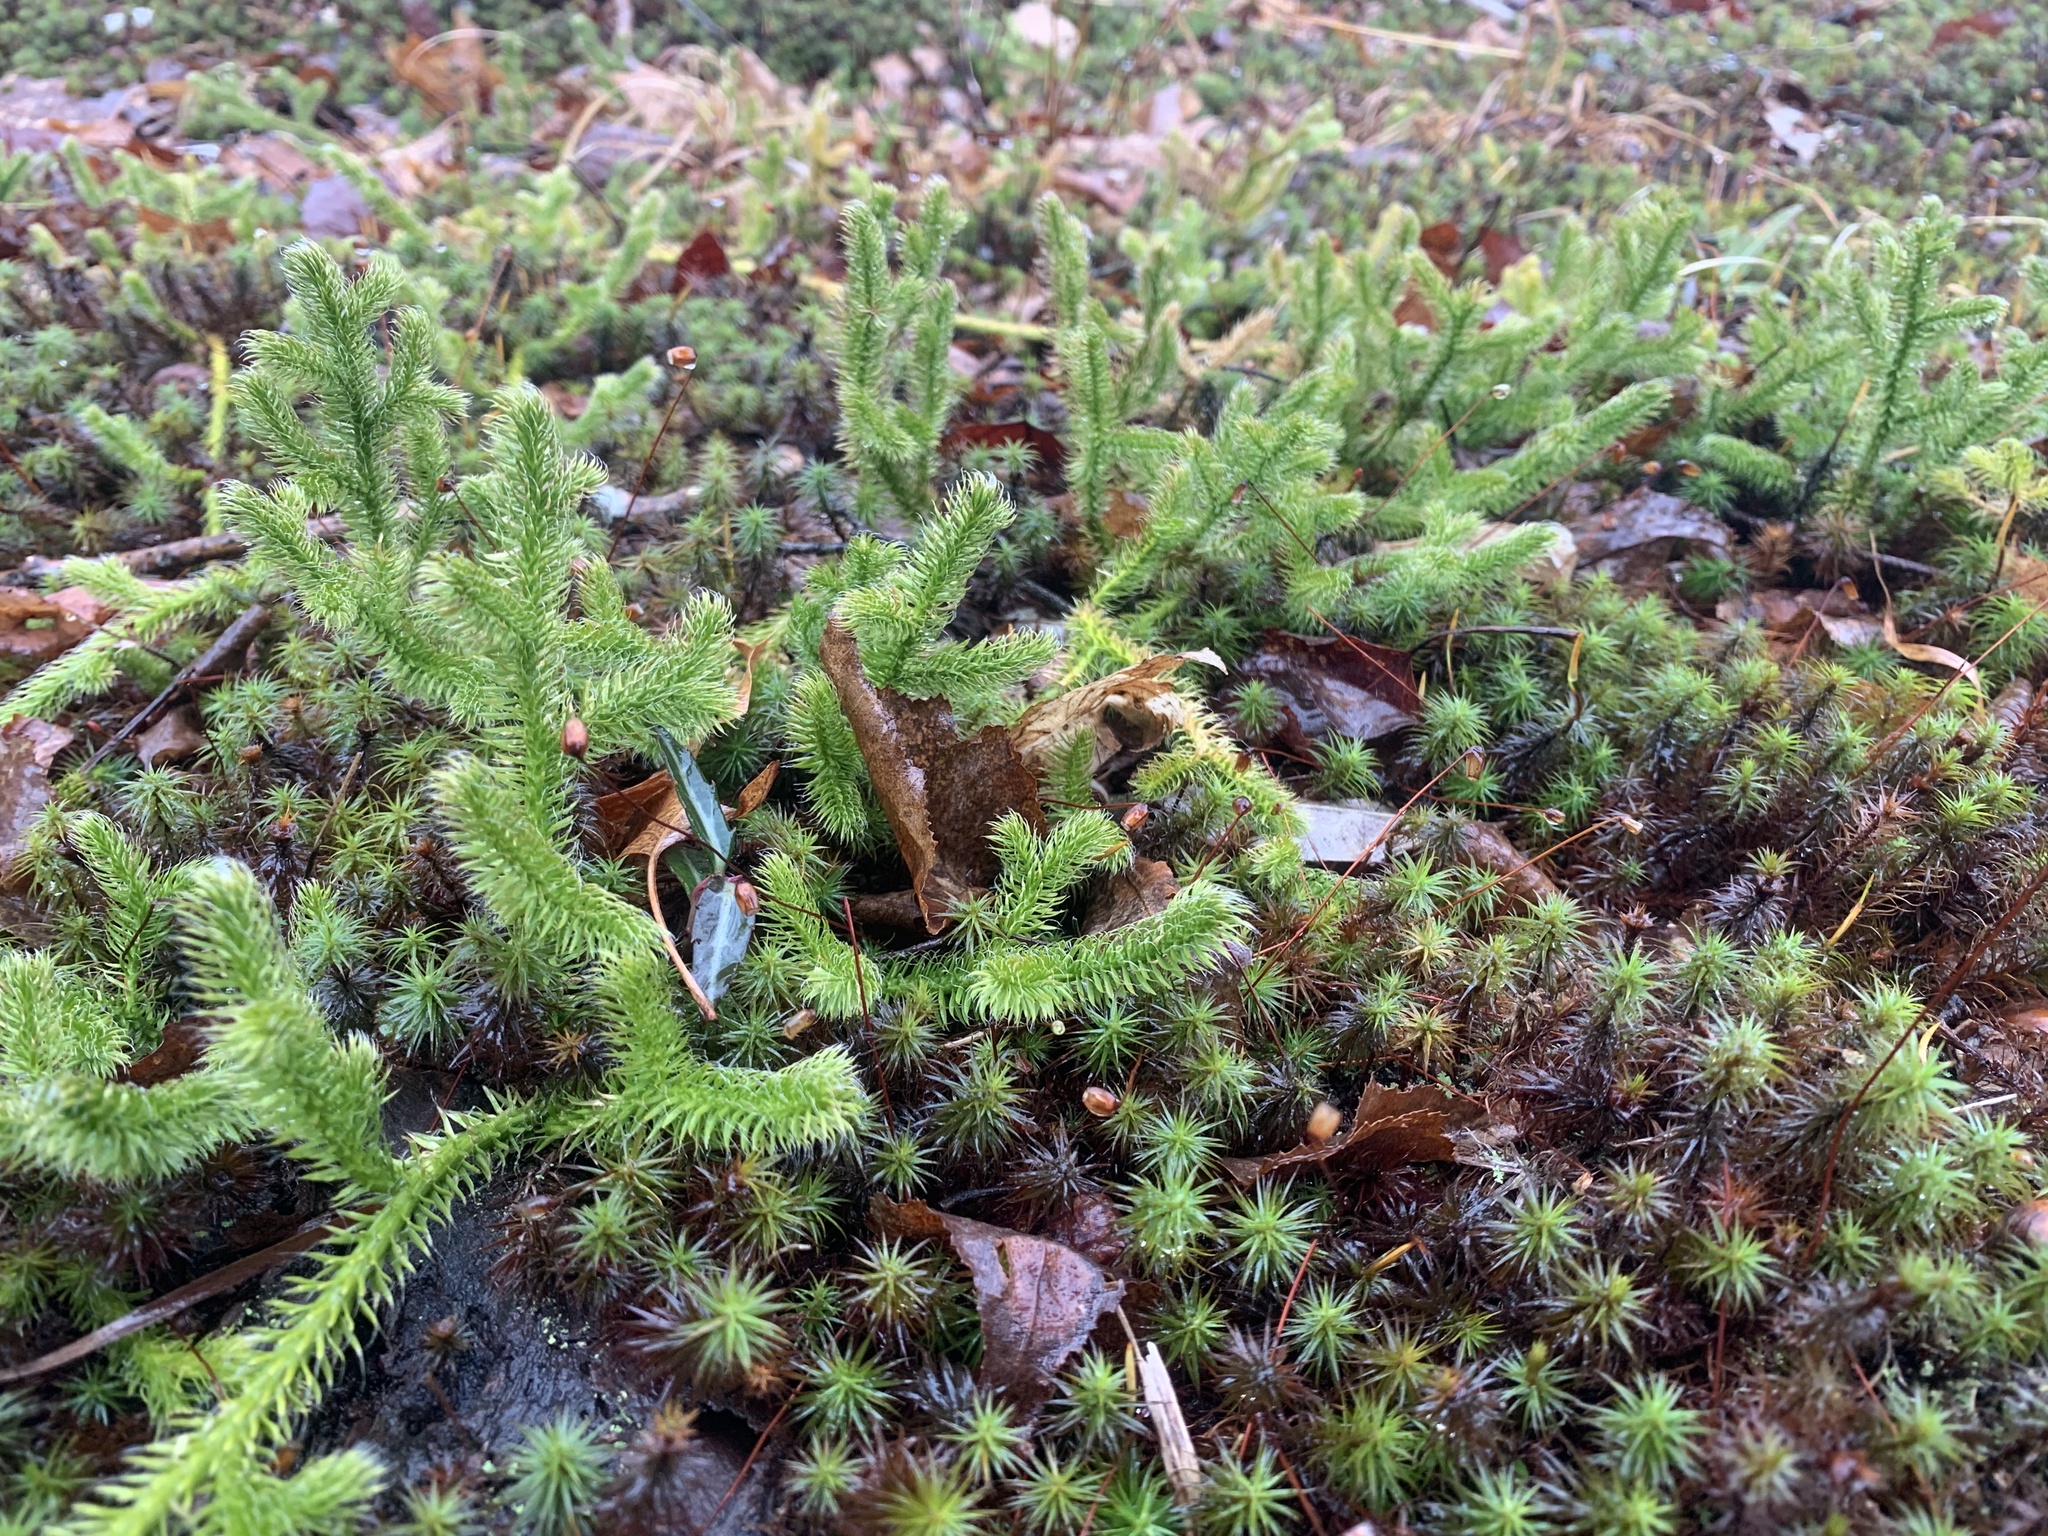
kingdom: Plantae
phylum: Tracheophyta
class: Lycopodiopsida
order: Lycopodiales
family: Lycopodiaceae
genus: Lycopodium
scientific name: Lycopodium clavatum
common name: Stag's-horn clubmoss
